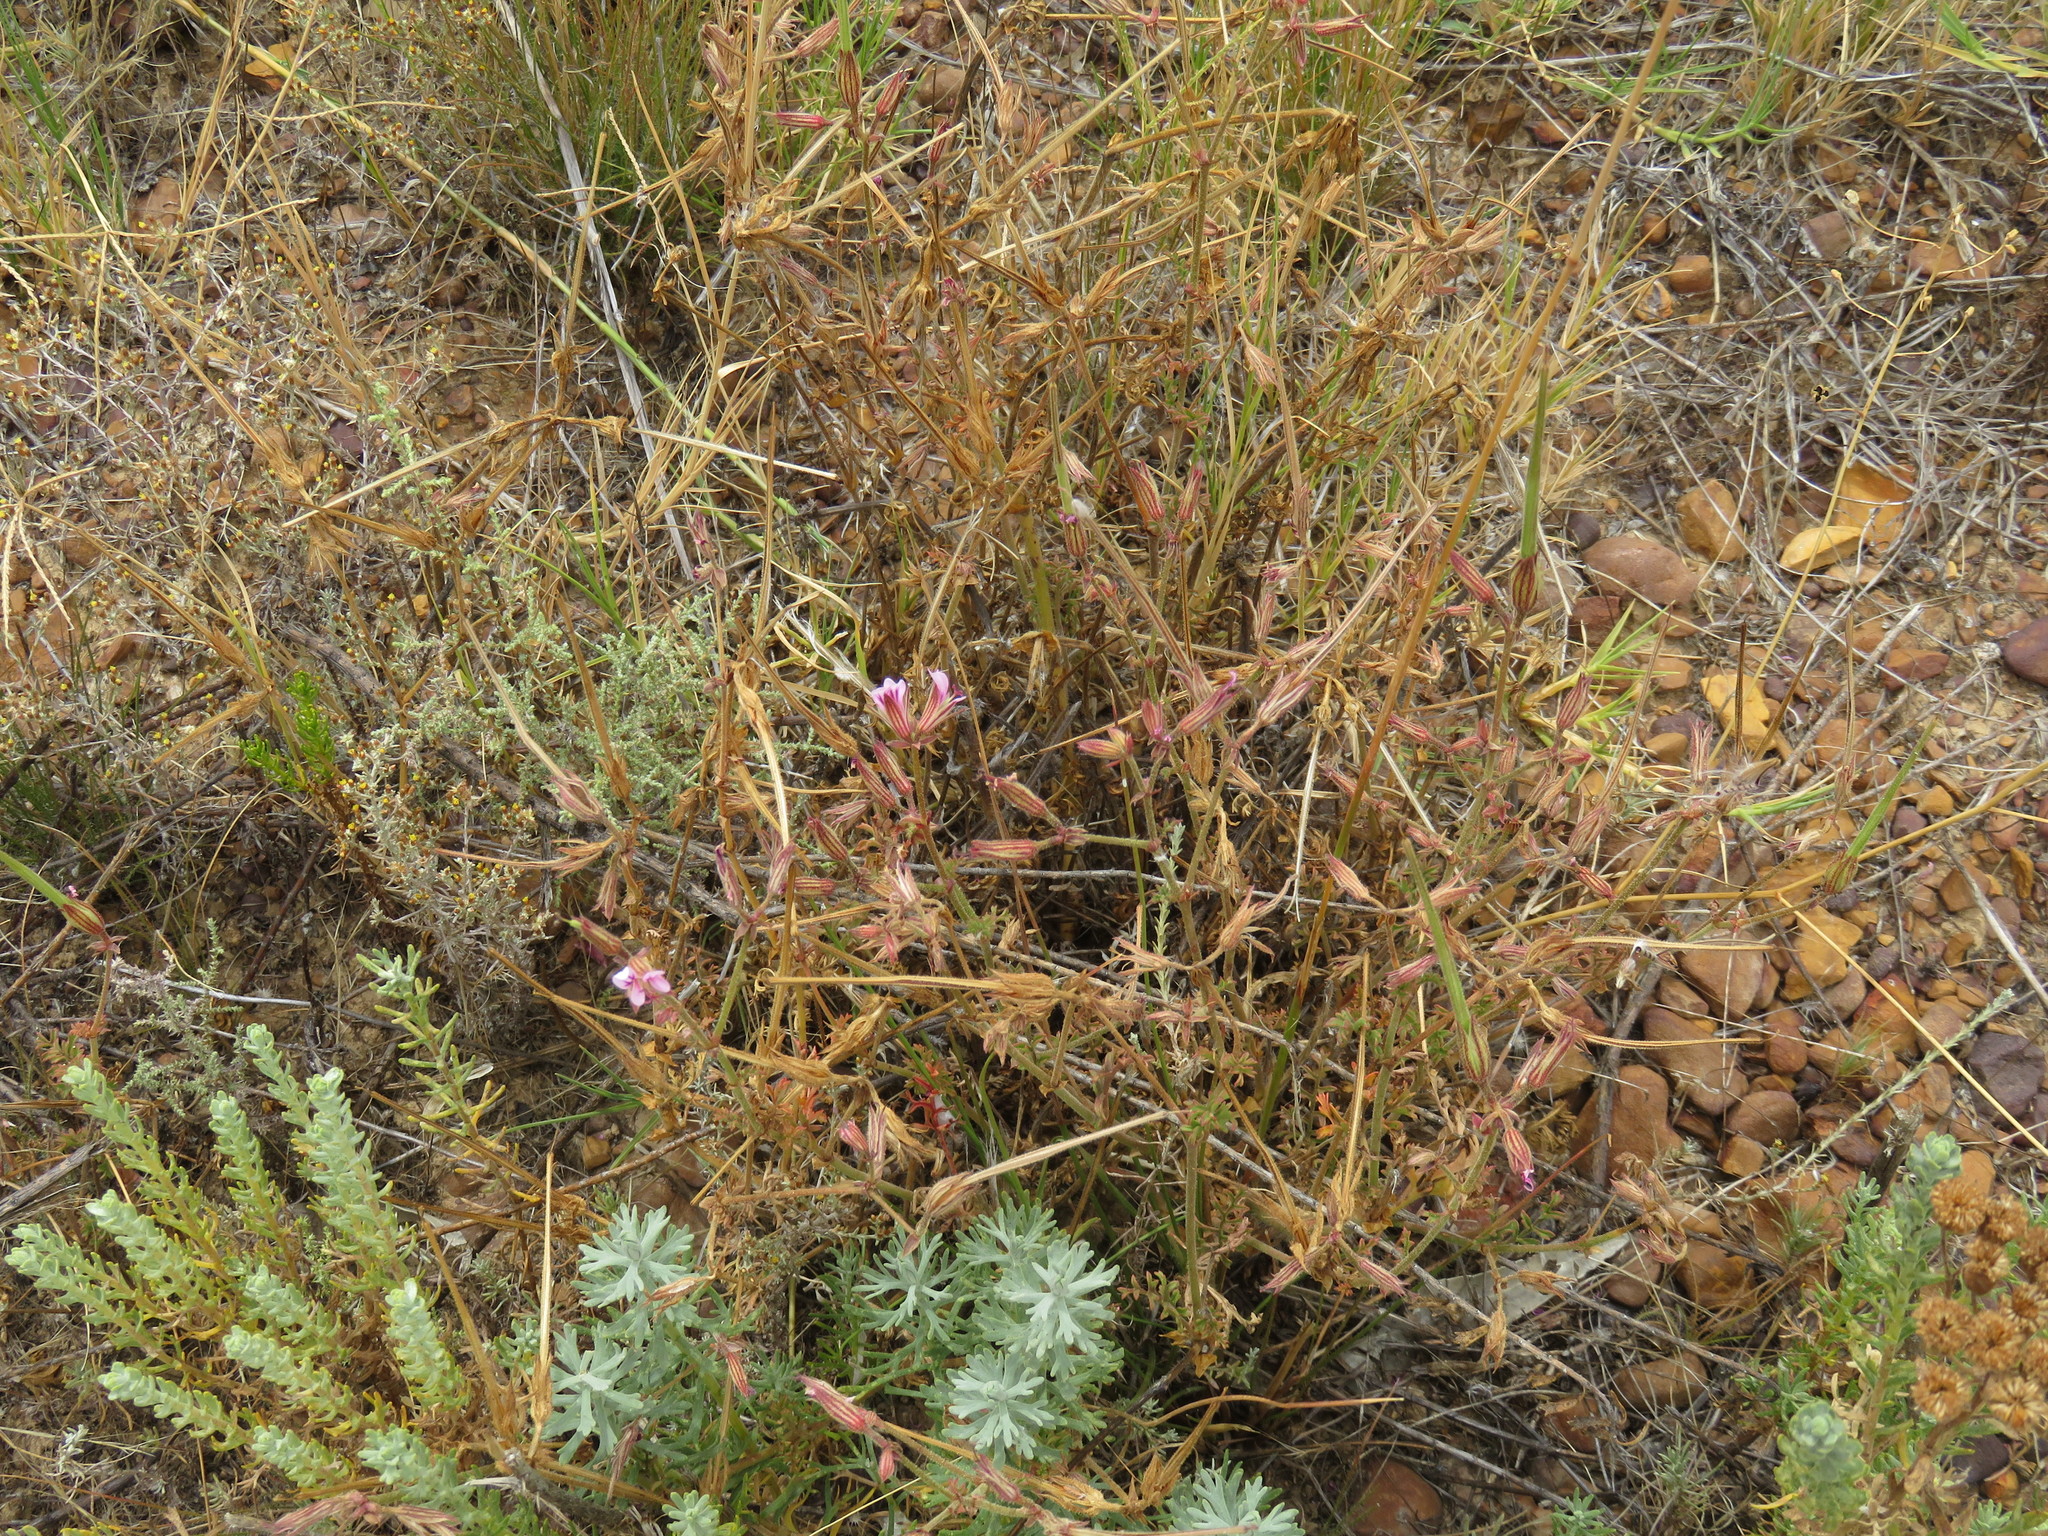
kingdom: Plantae
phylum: Tracheophyta
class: Magnoliopsida
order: Geraniales
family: Geraniaceae
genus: Pelargonium
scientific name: Pelargonium myrrhifolium
